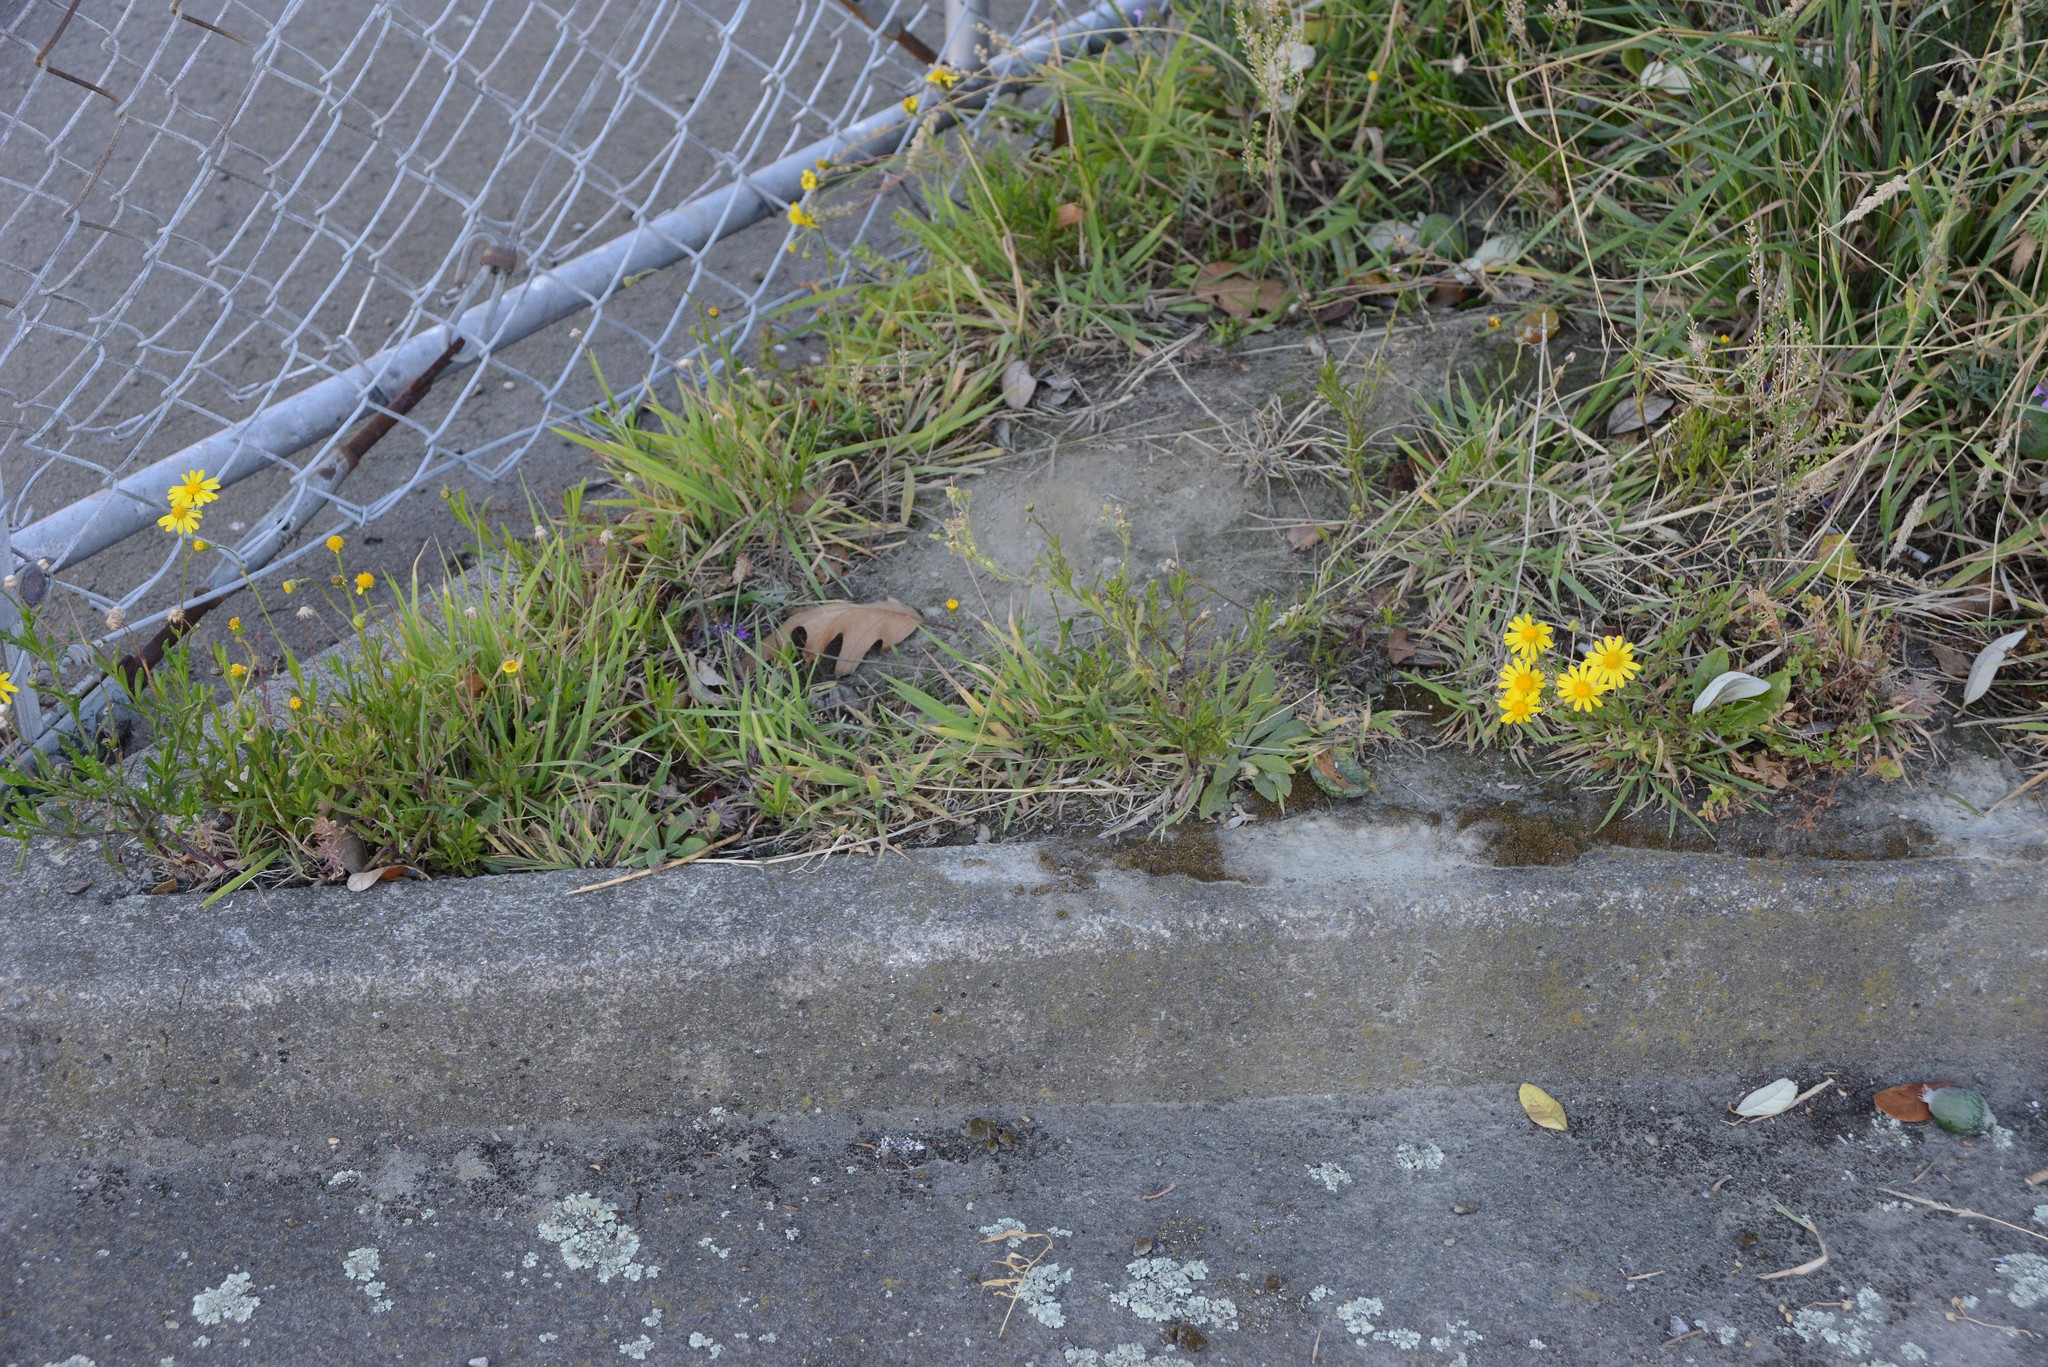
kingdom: Plantae
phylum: Tracheophyta
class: Magnoliopsida
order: Asterales
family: Asteraceae
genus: Senecio
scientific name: Senecio skirrhodon
